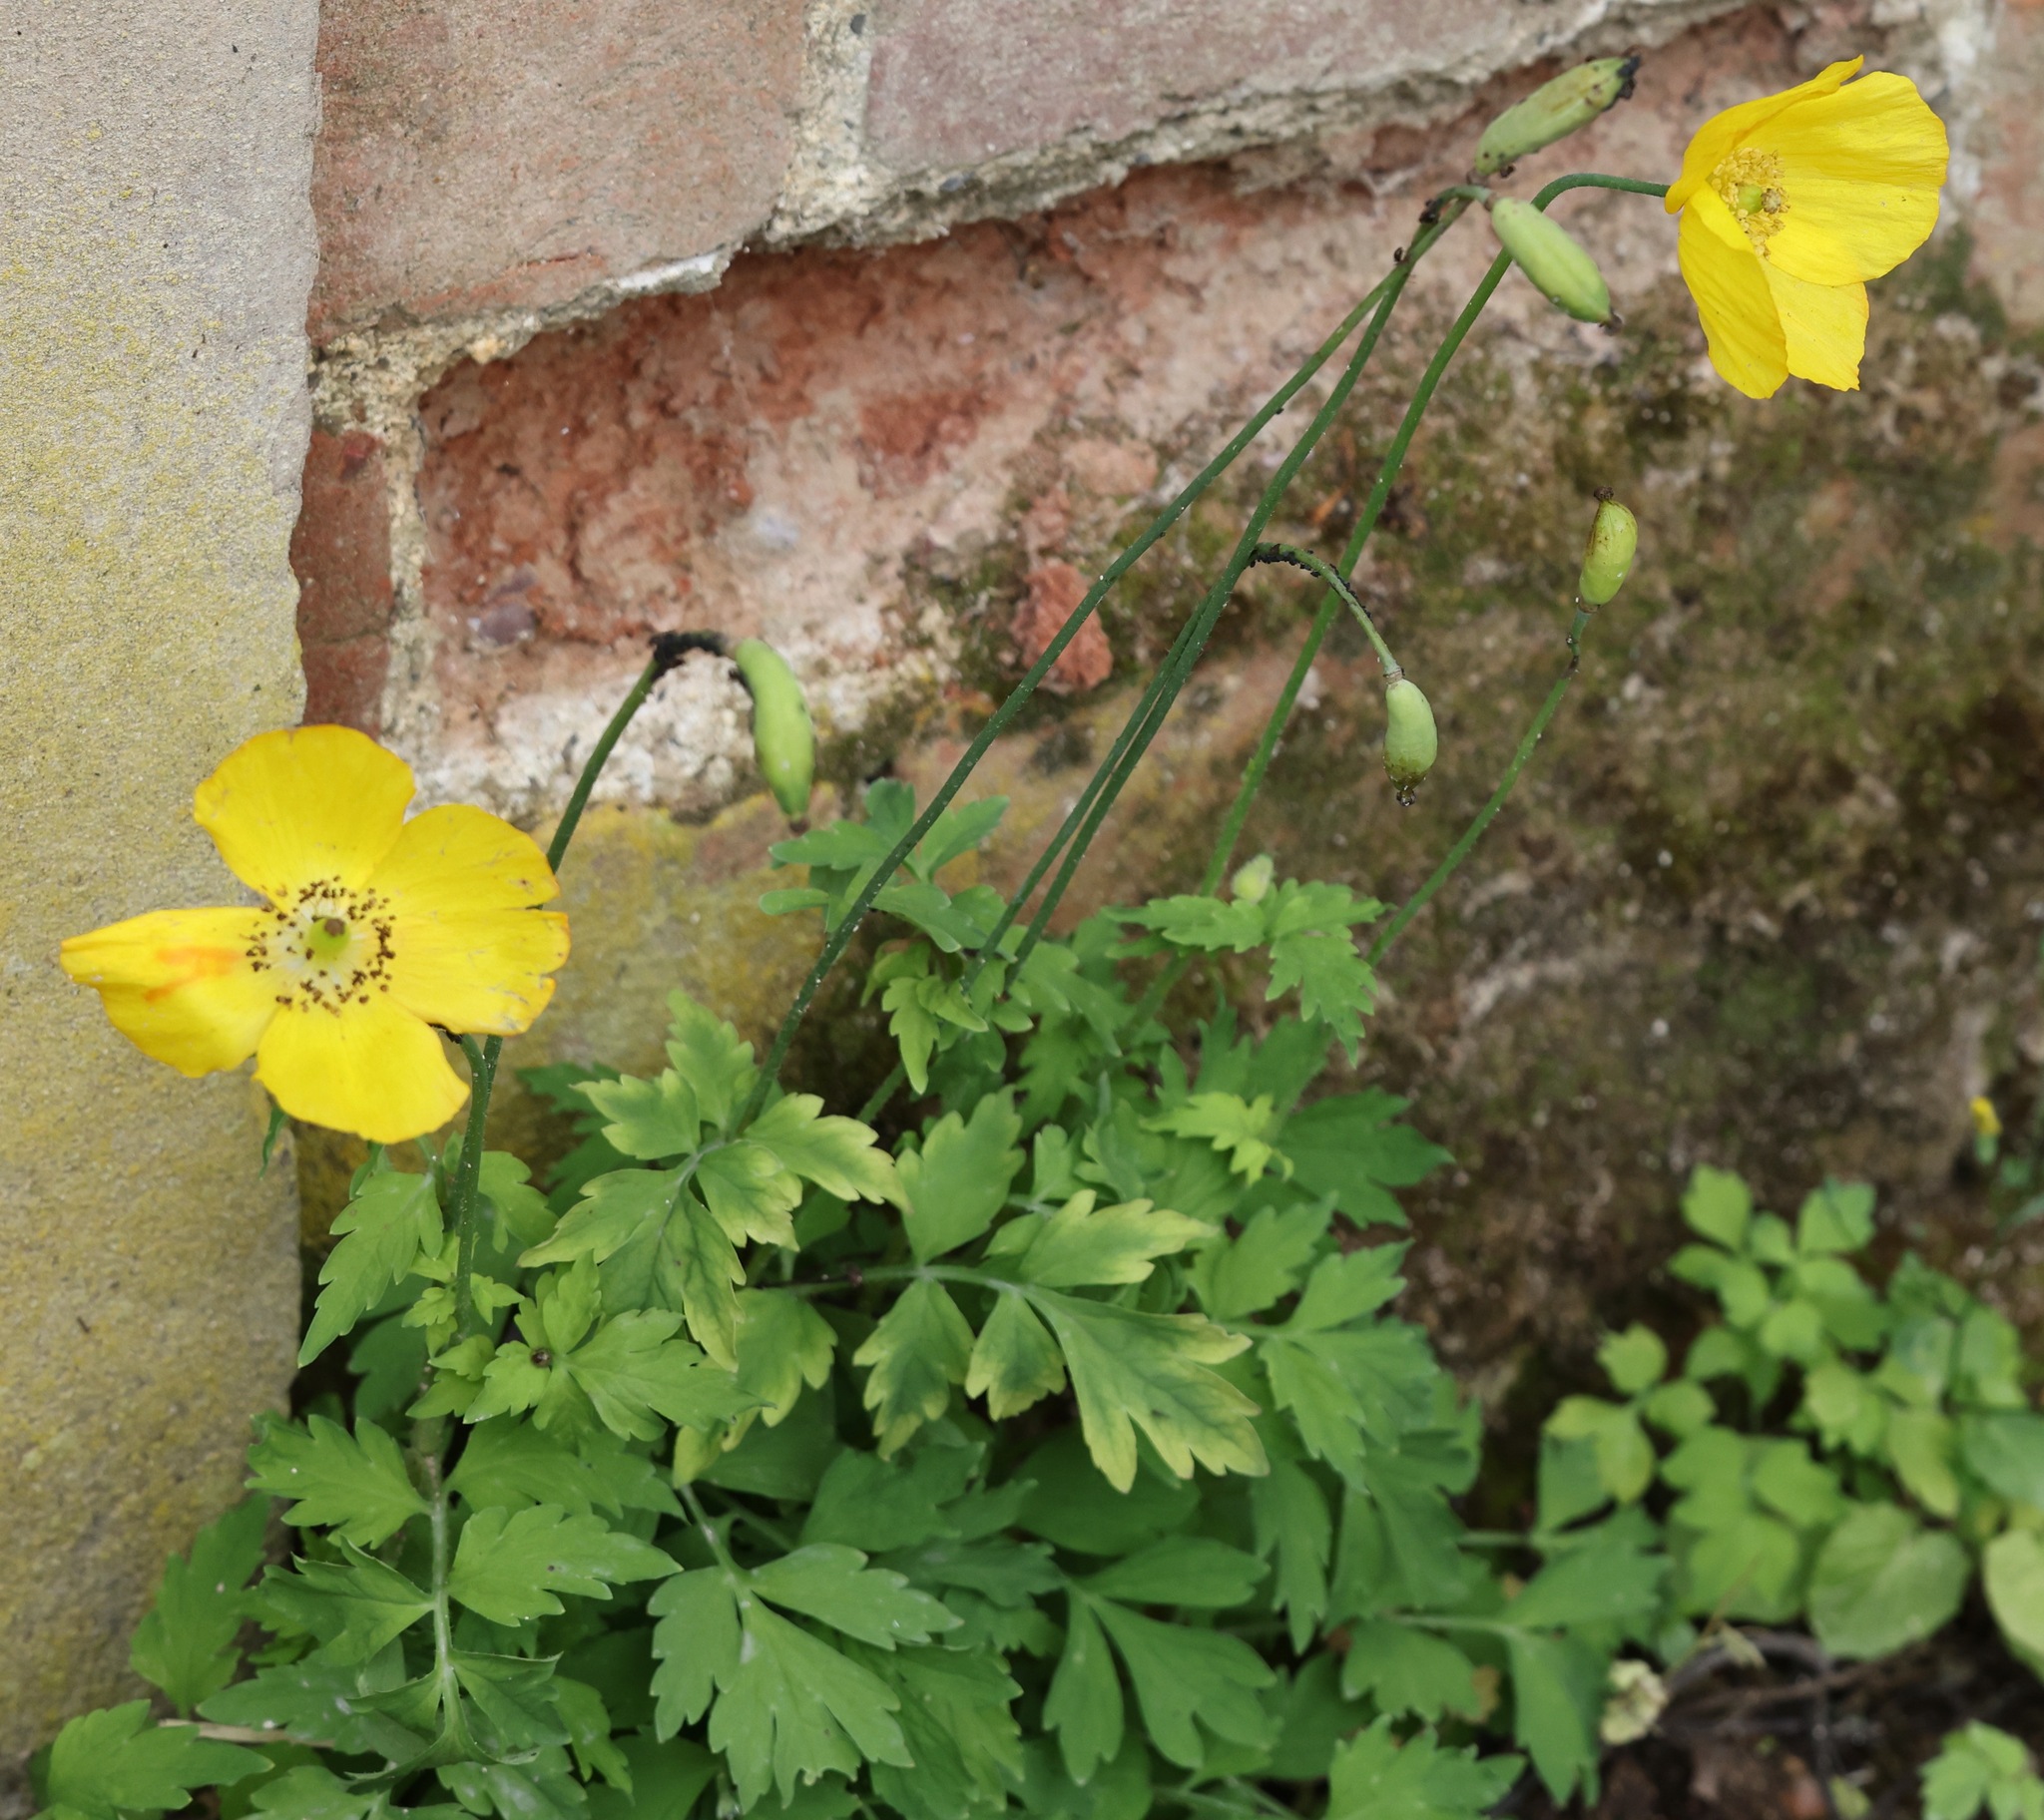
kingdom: Plantae
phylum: Tracheophyta
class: Magnoliopsida
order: Ranunculales
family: Papaveraceae
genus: Papaver
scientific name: Papaver cambricum
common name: Poppy
